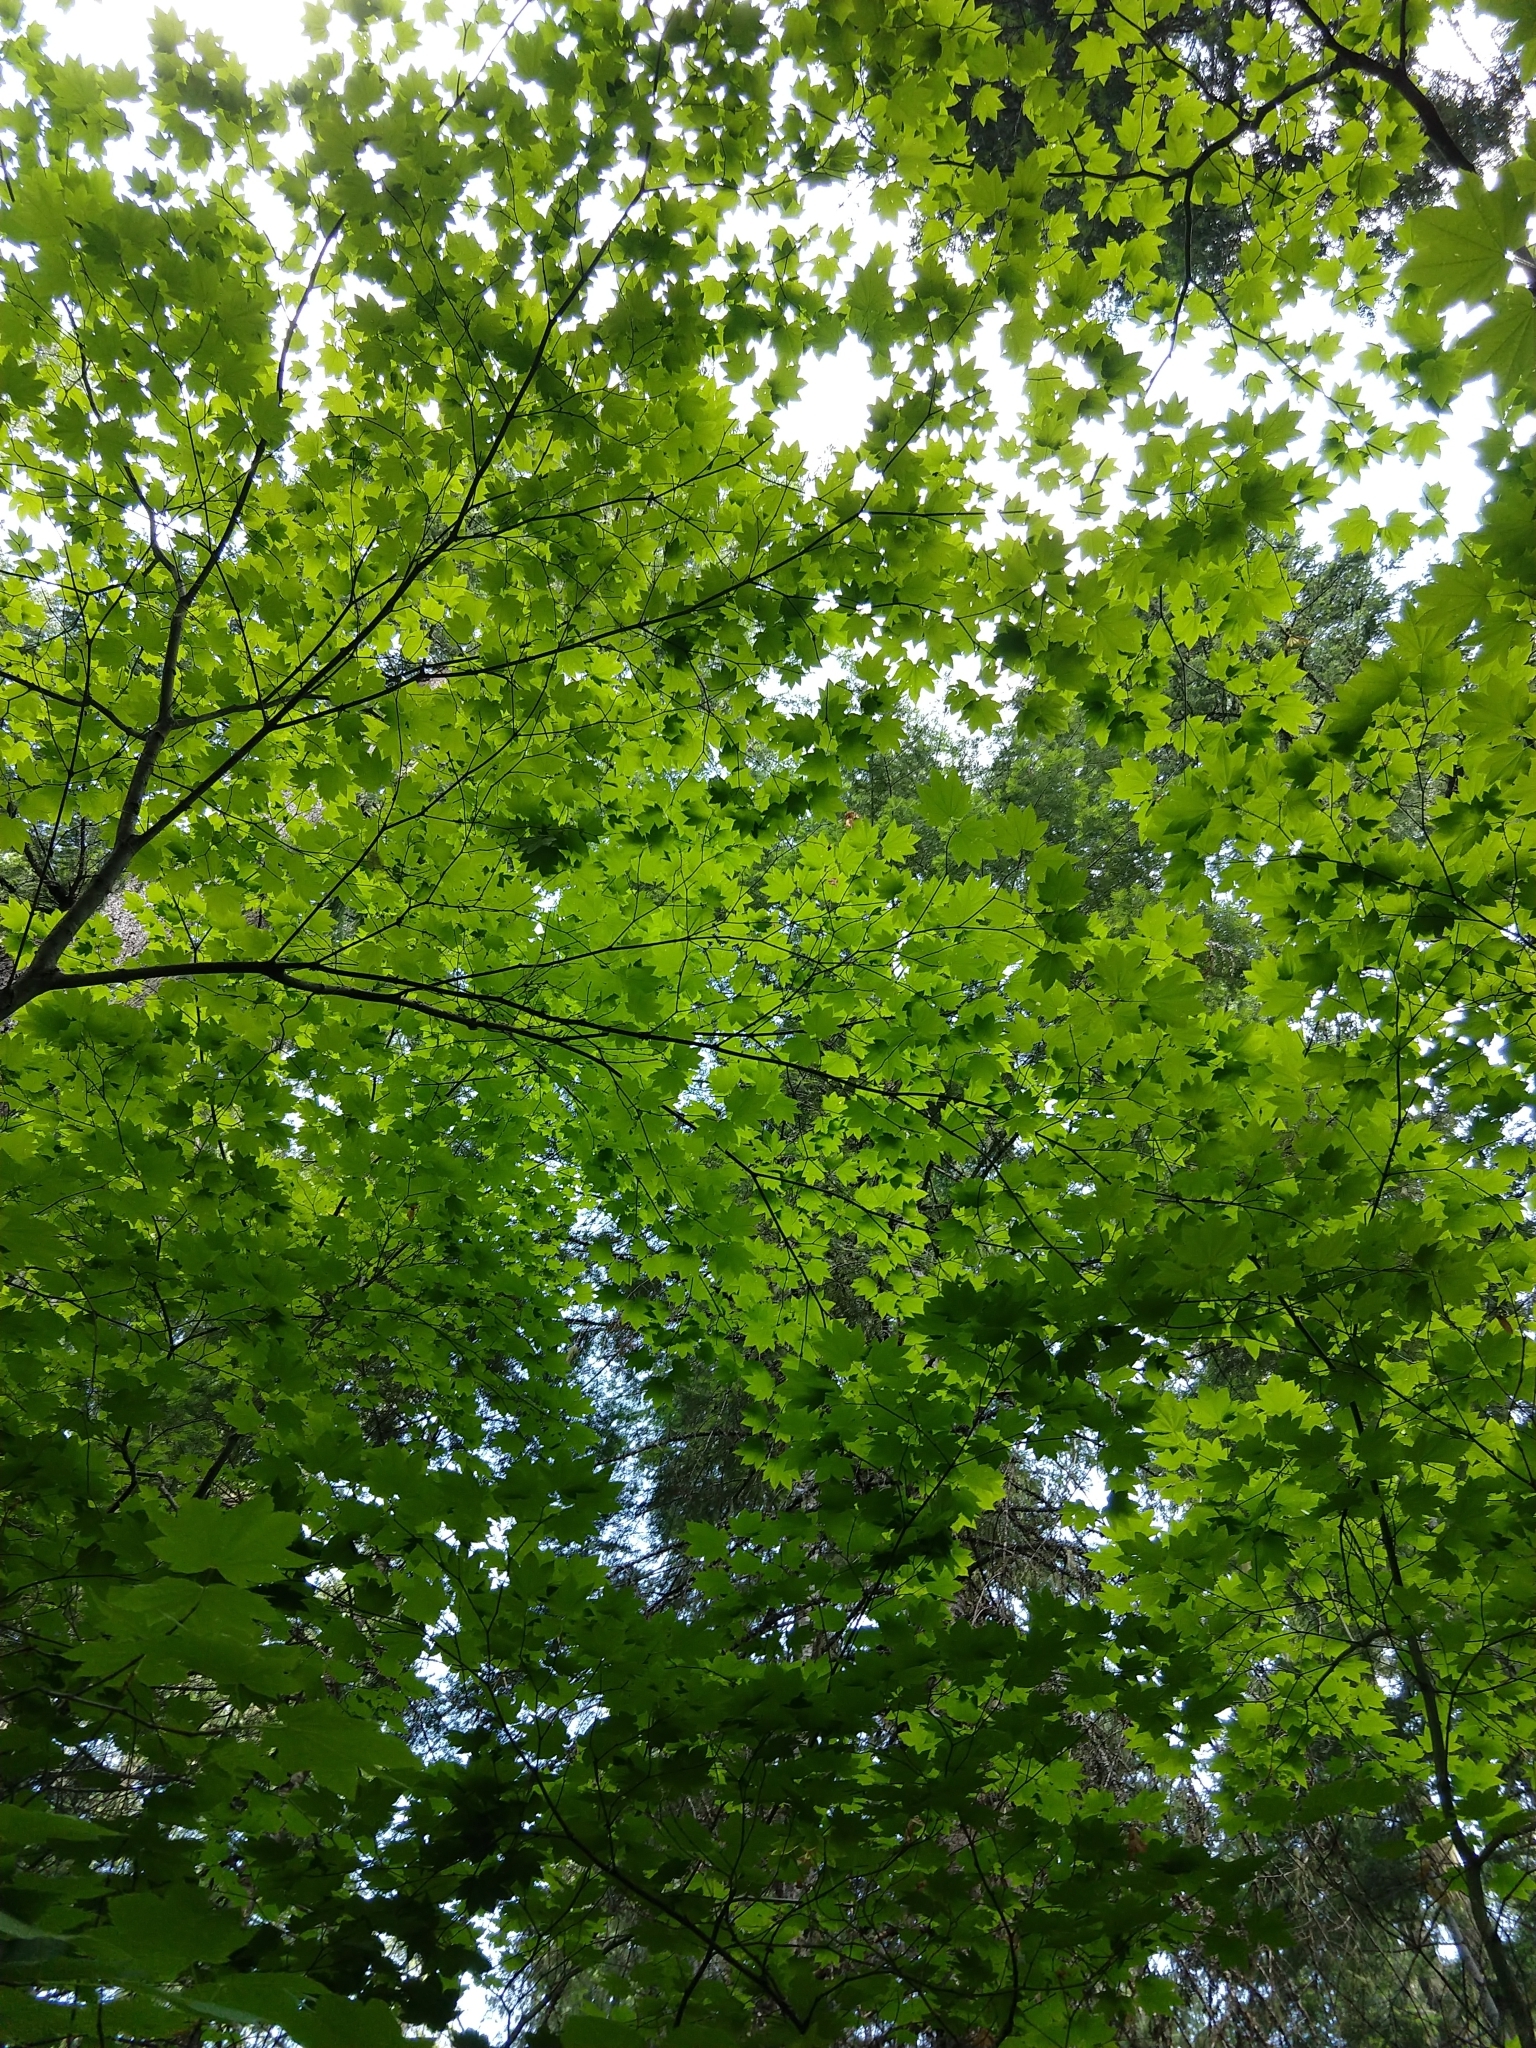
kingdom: Plantae
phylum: Tracheophyta
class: Magnoliopsida
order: Sapindales
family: Sapindaceae
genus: Acer
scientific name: Acer circinatum
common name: Vine maple
